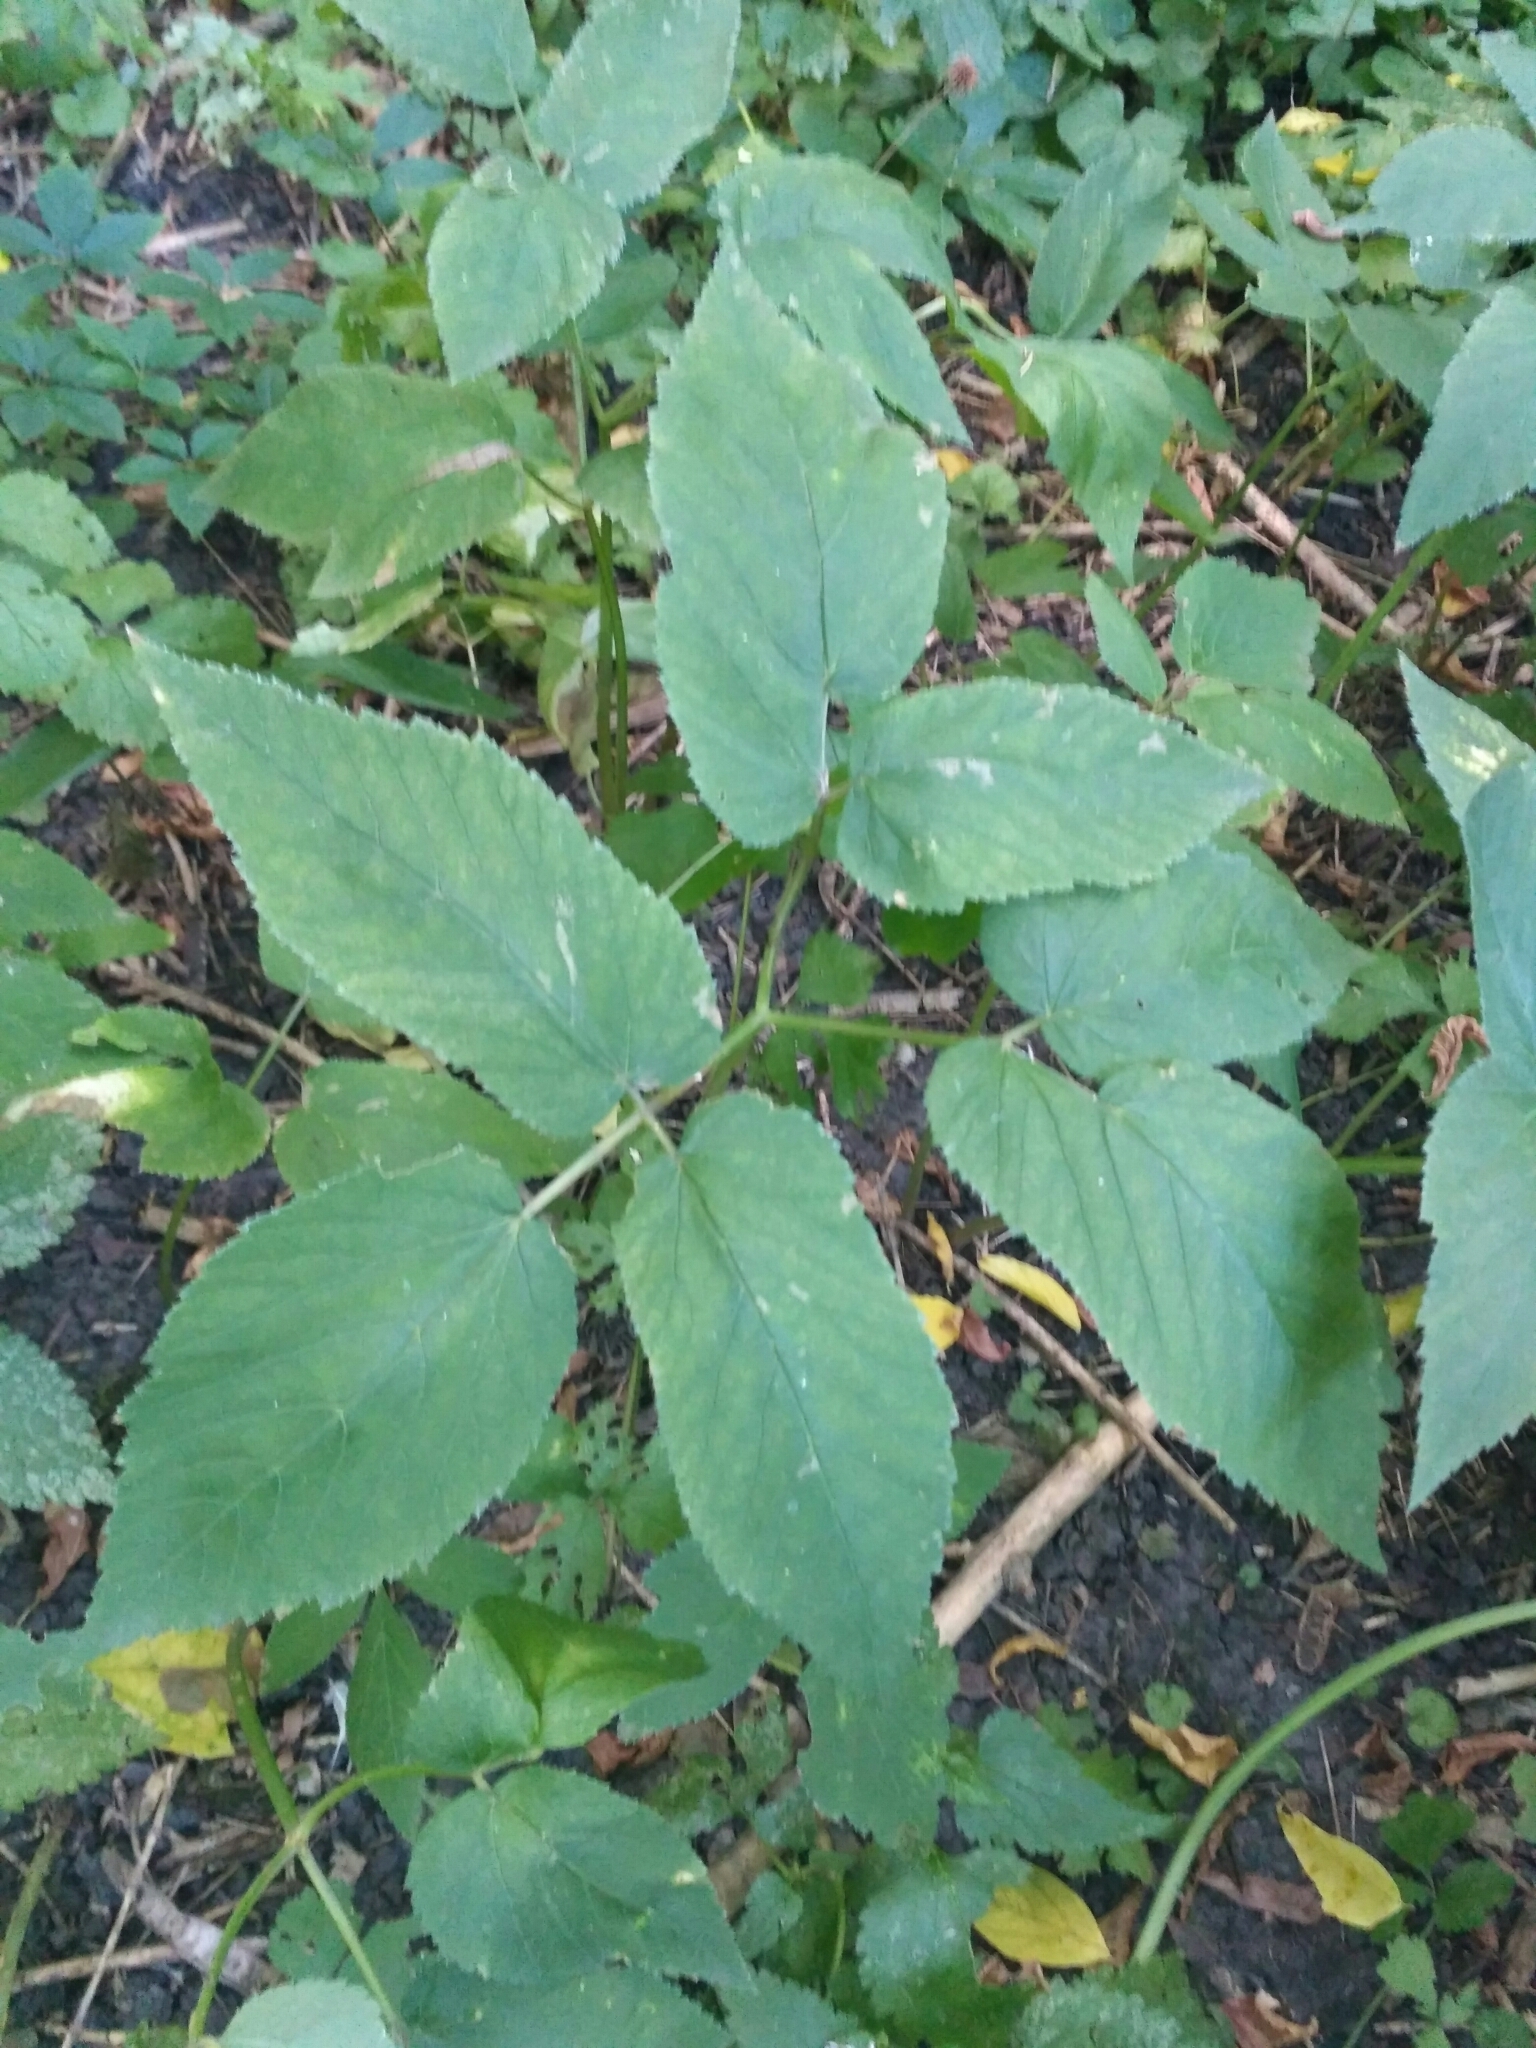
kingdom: Plantae
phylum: Tracheophyta
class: Magnoliopsida
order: Apiales
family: Apiaceae
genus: Aegopodium
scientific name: Aegopodium podagraria
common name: Ground-elder
